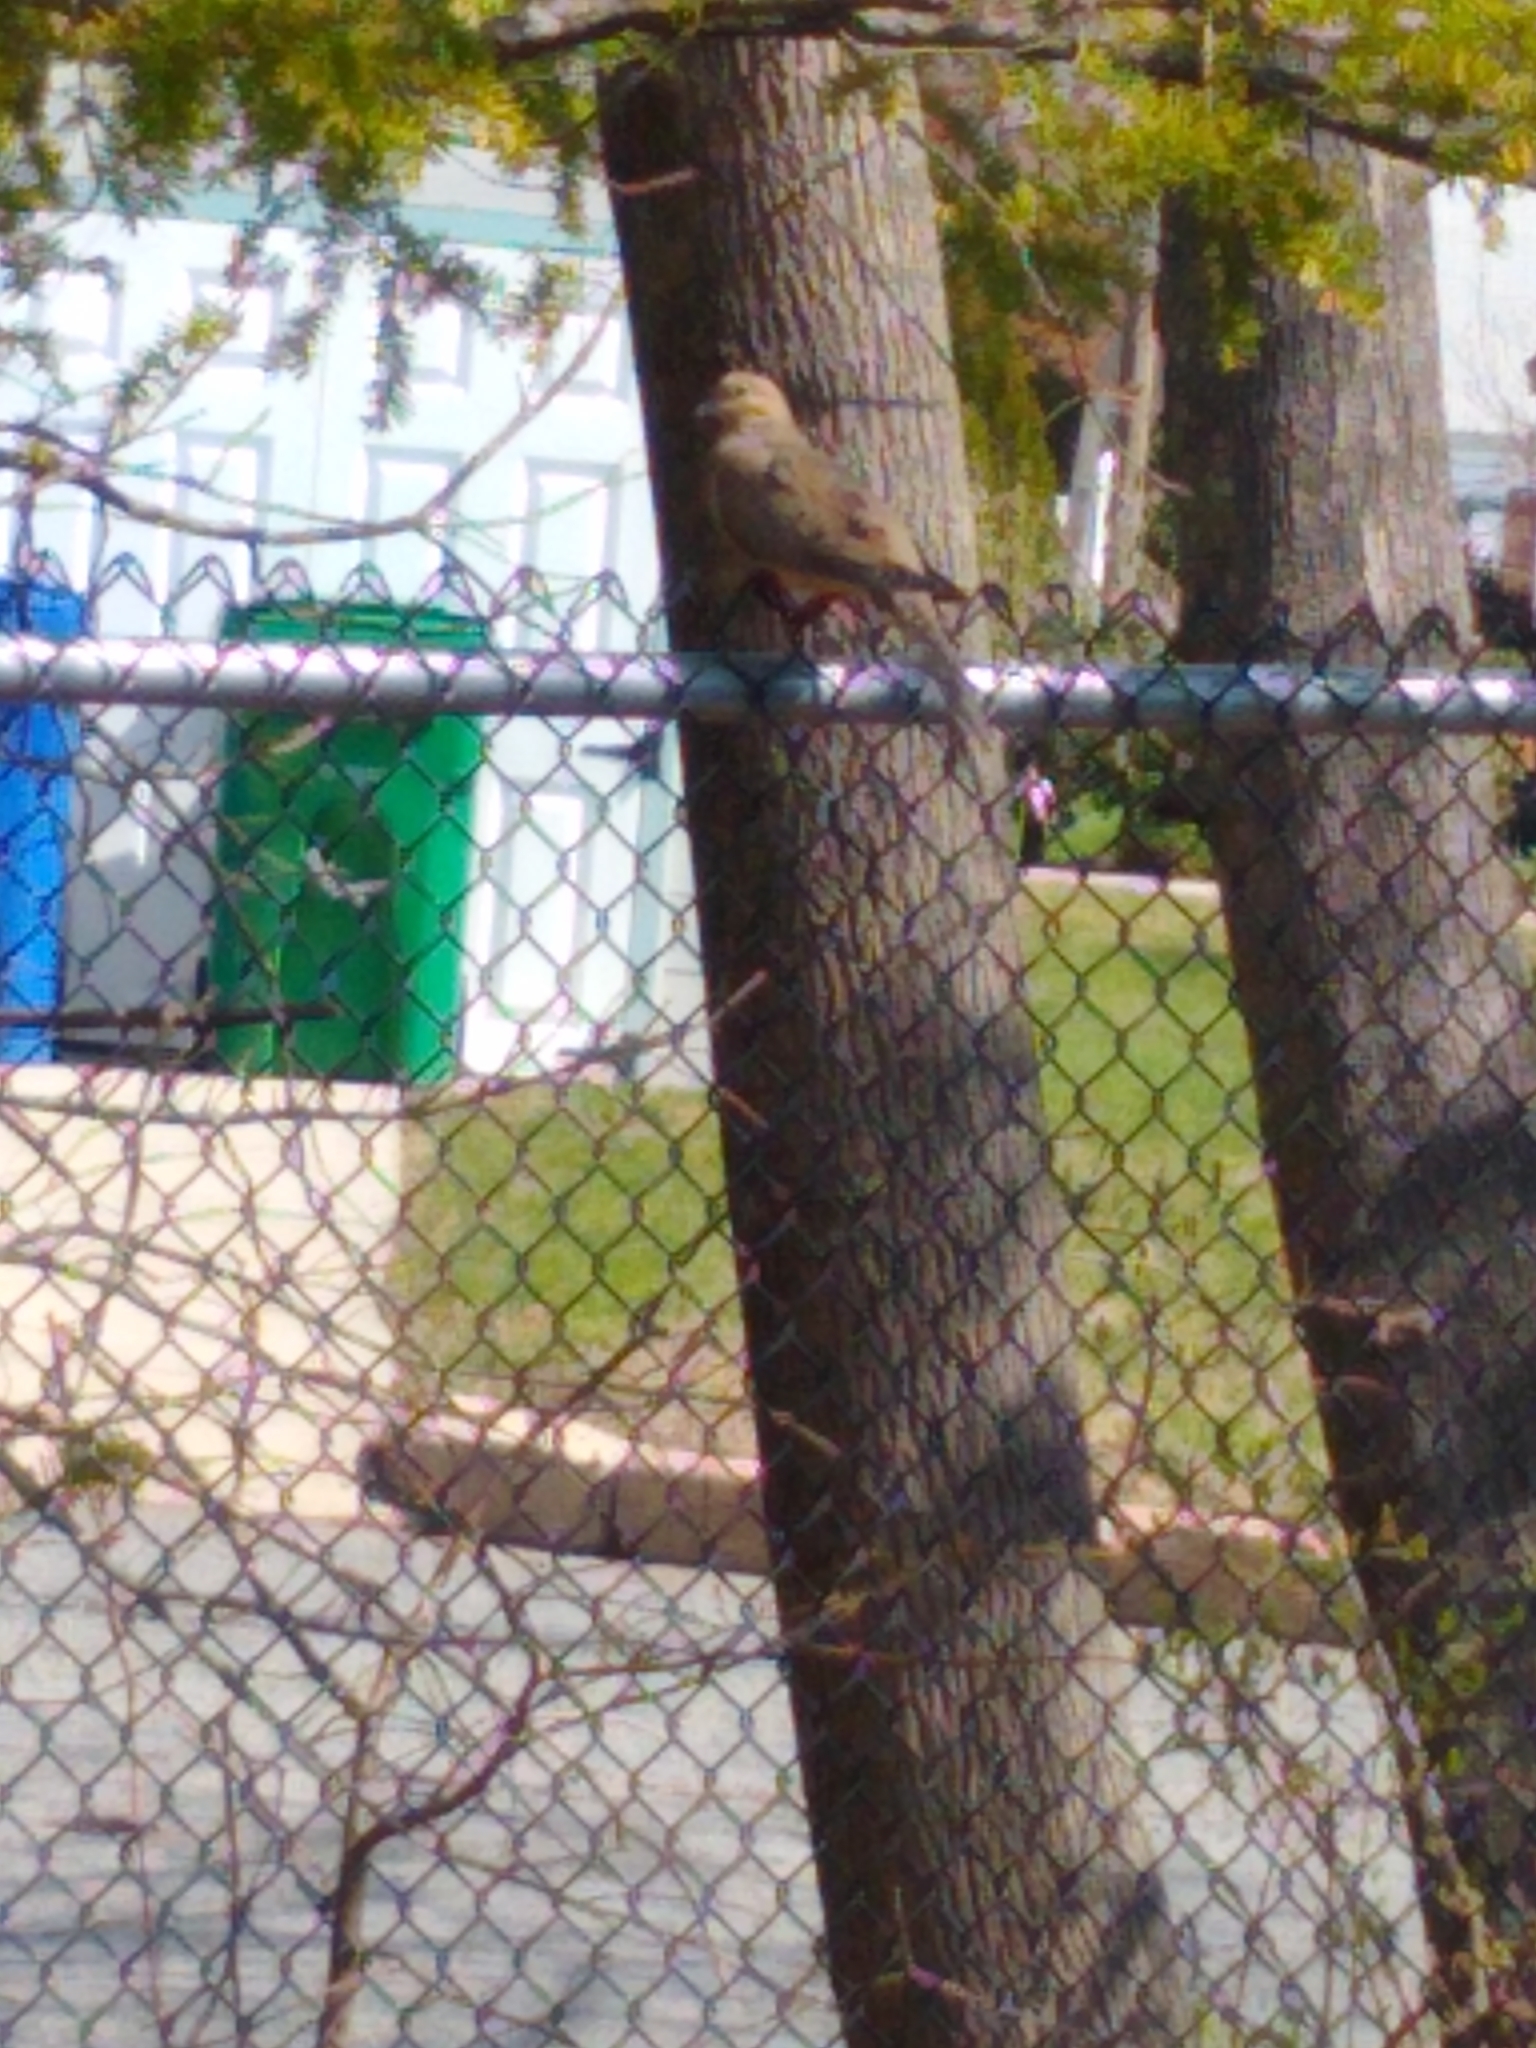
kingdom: Animalia
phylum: Chordata
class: Aves
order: Columbiformes
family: Columbidae
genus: Zenaida
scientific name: Zenaida macroura
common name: Mourning dove
